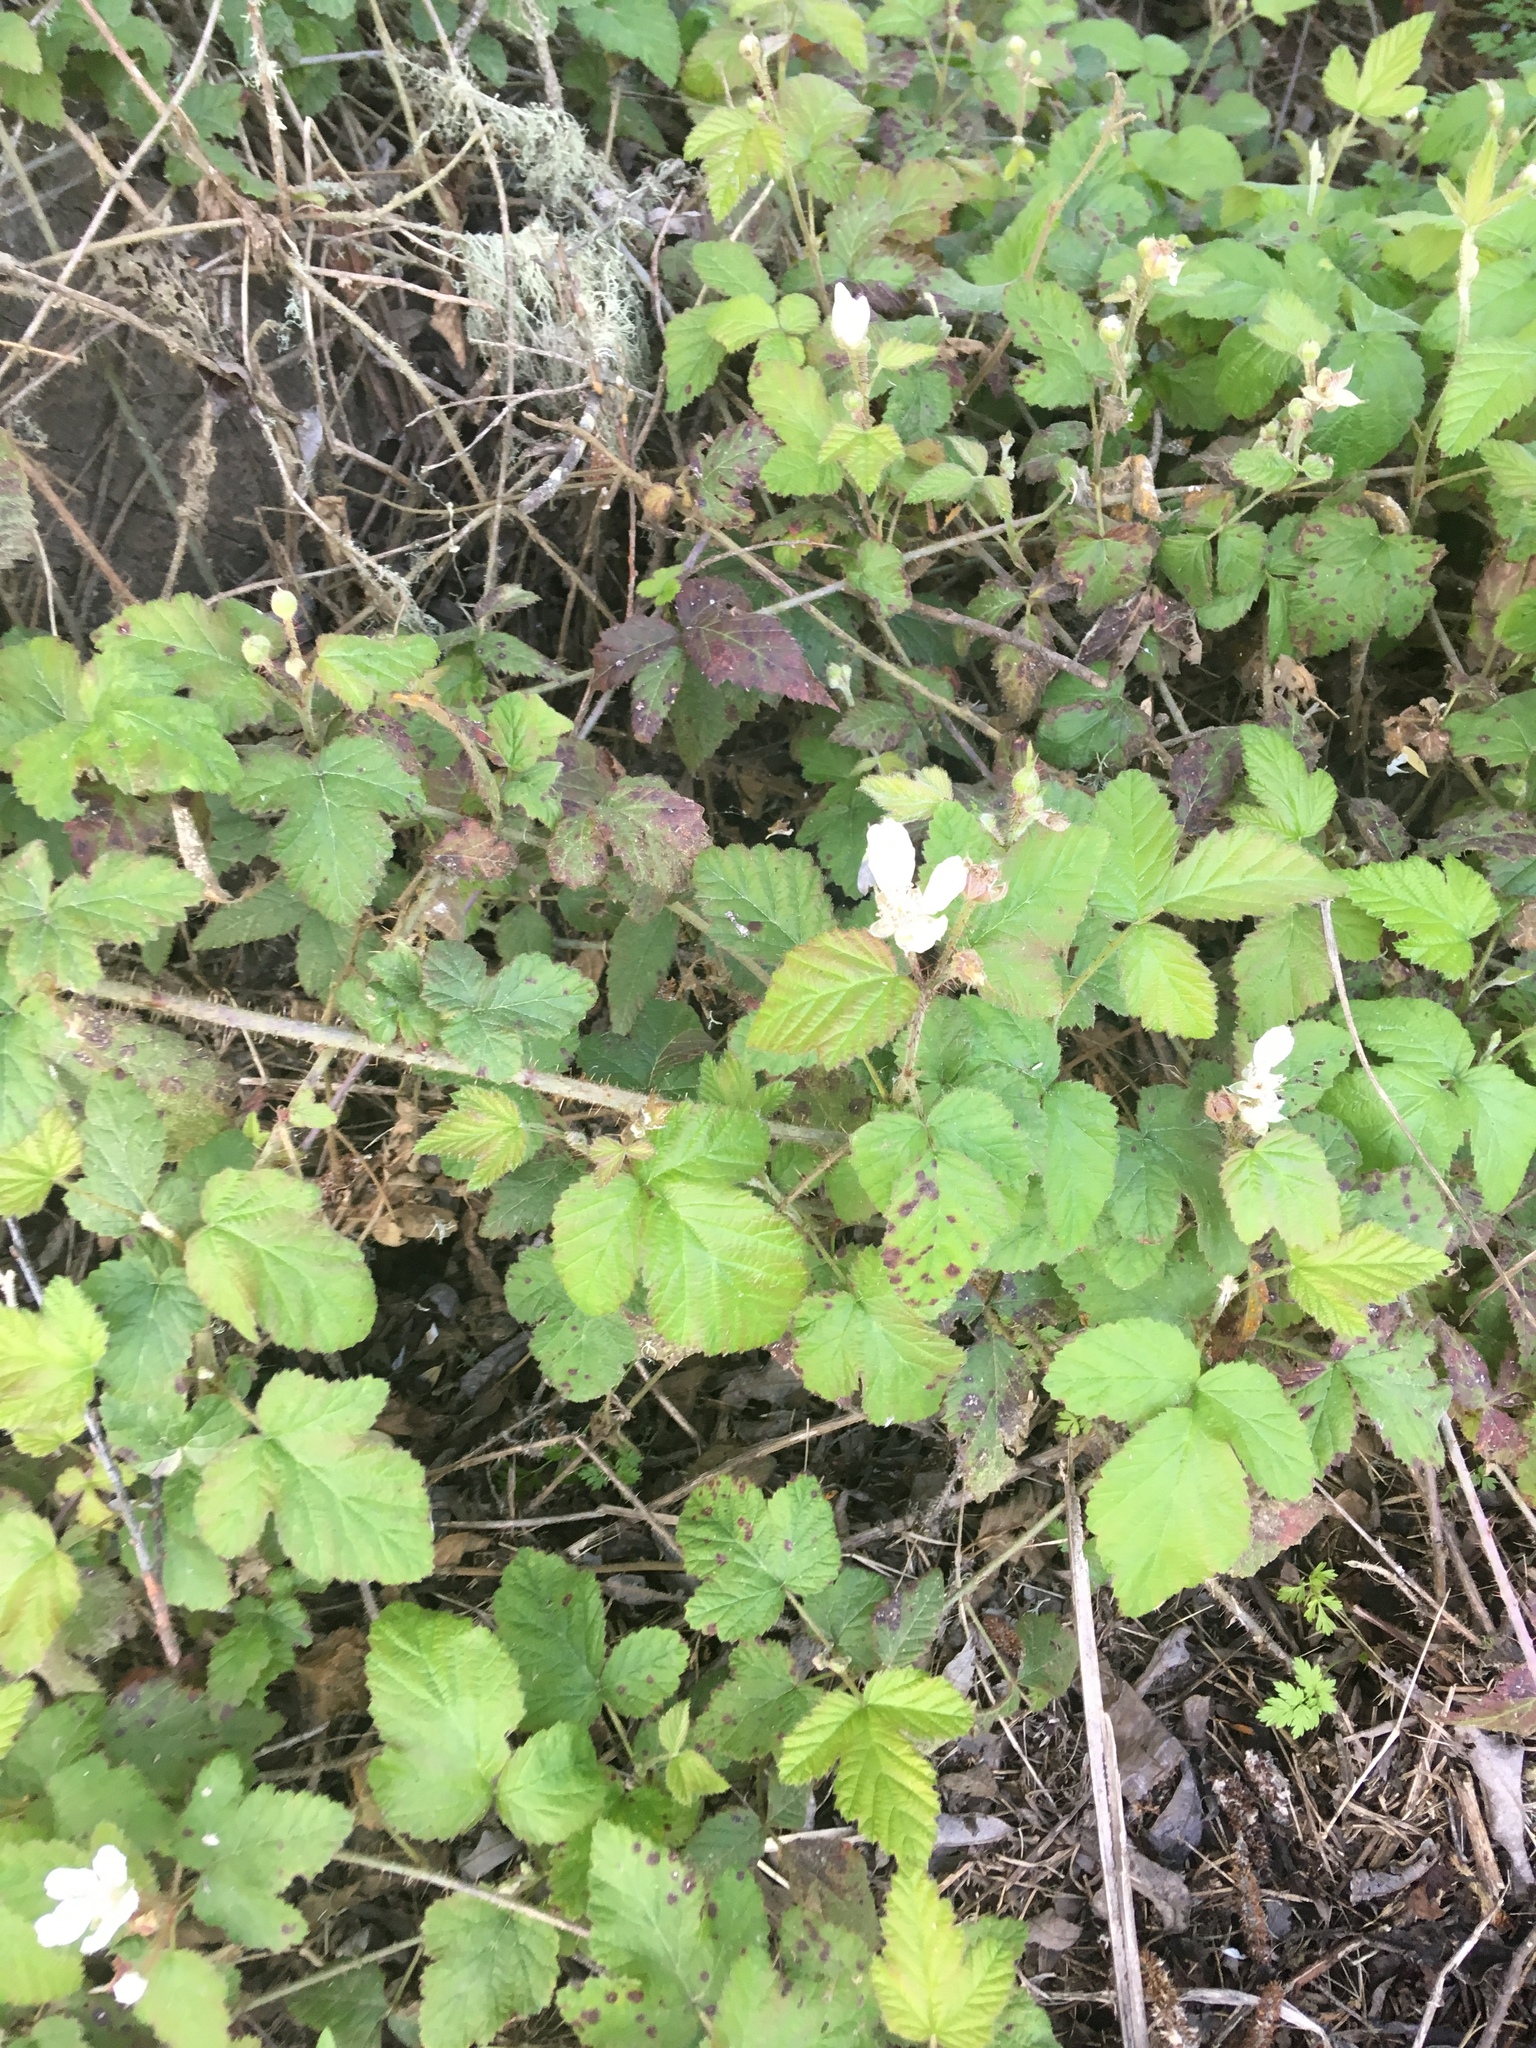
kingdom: Plantae
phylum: Tracheophyta
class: Magnoliopsida
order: Rosales
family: Rosaceae
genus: Rubus
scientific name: Rubus ursinus
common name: Pacific blackberry
